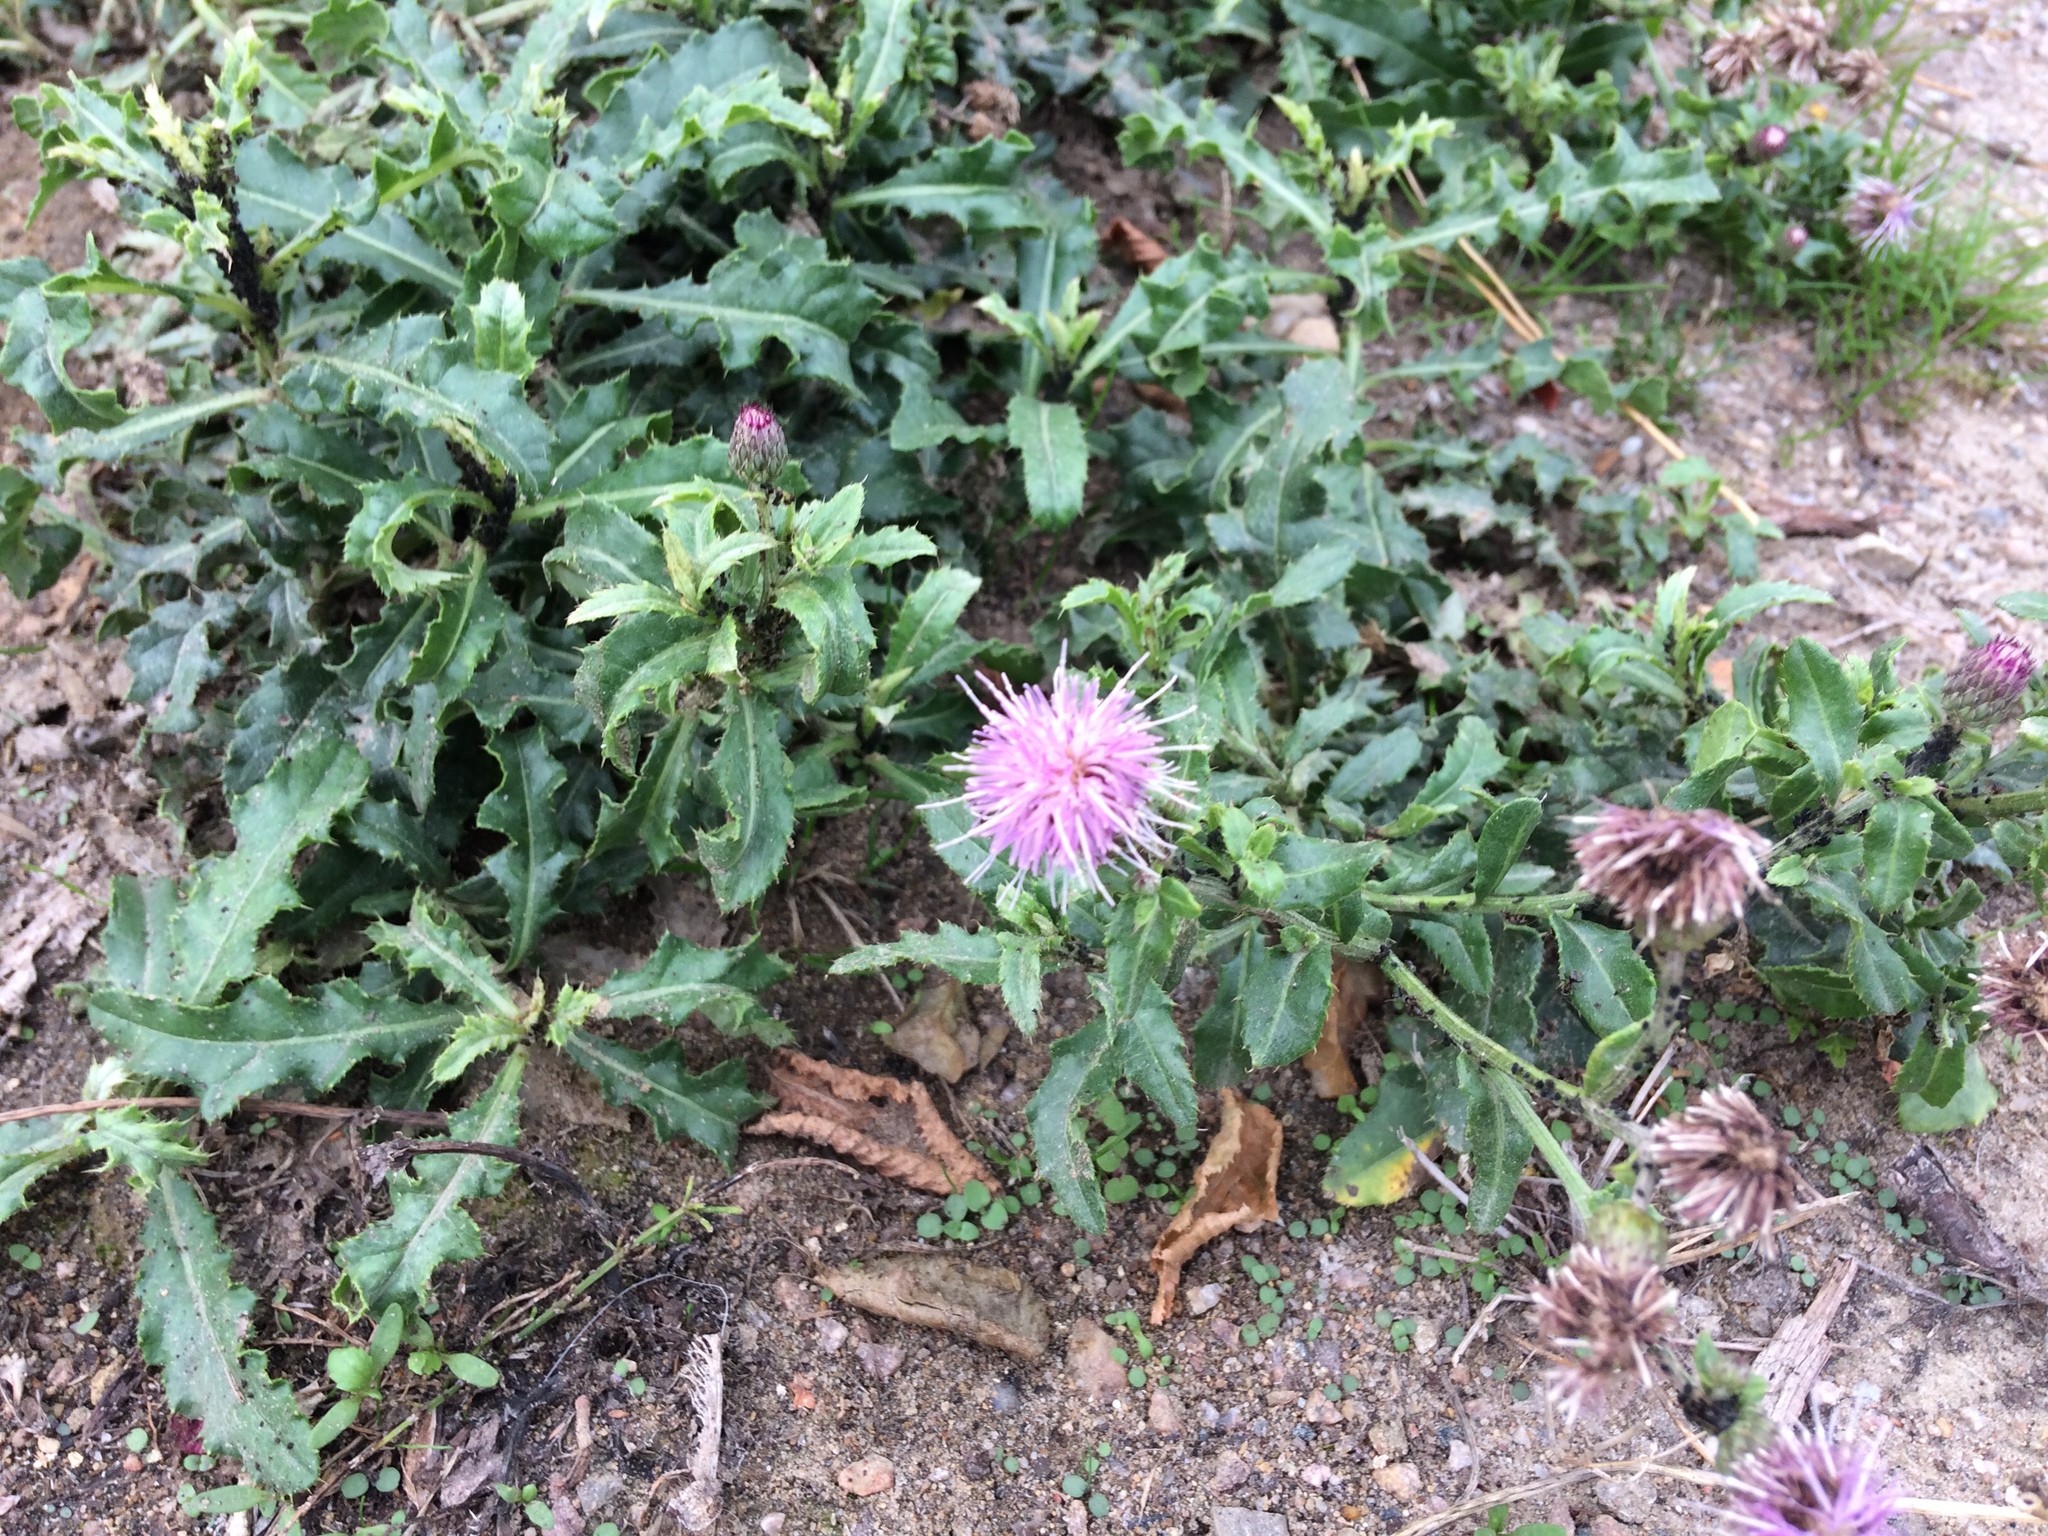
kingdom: Plantae
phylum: Tracheophyta
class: Magnoliopsida
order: Asterales
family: Asteraceae
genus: Cirsium
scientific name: Cirsium arvense
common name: Creeping thistle
